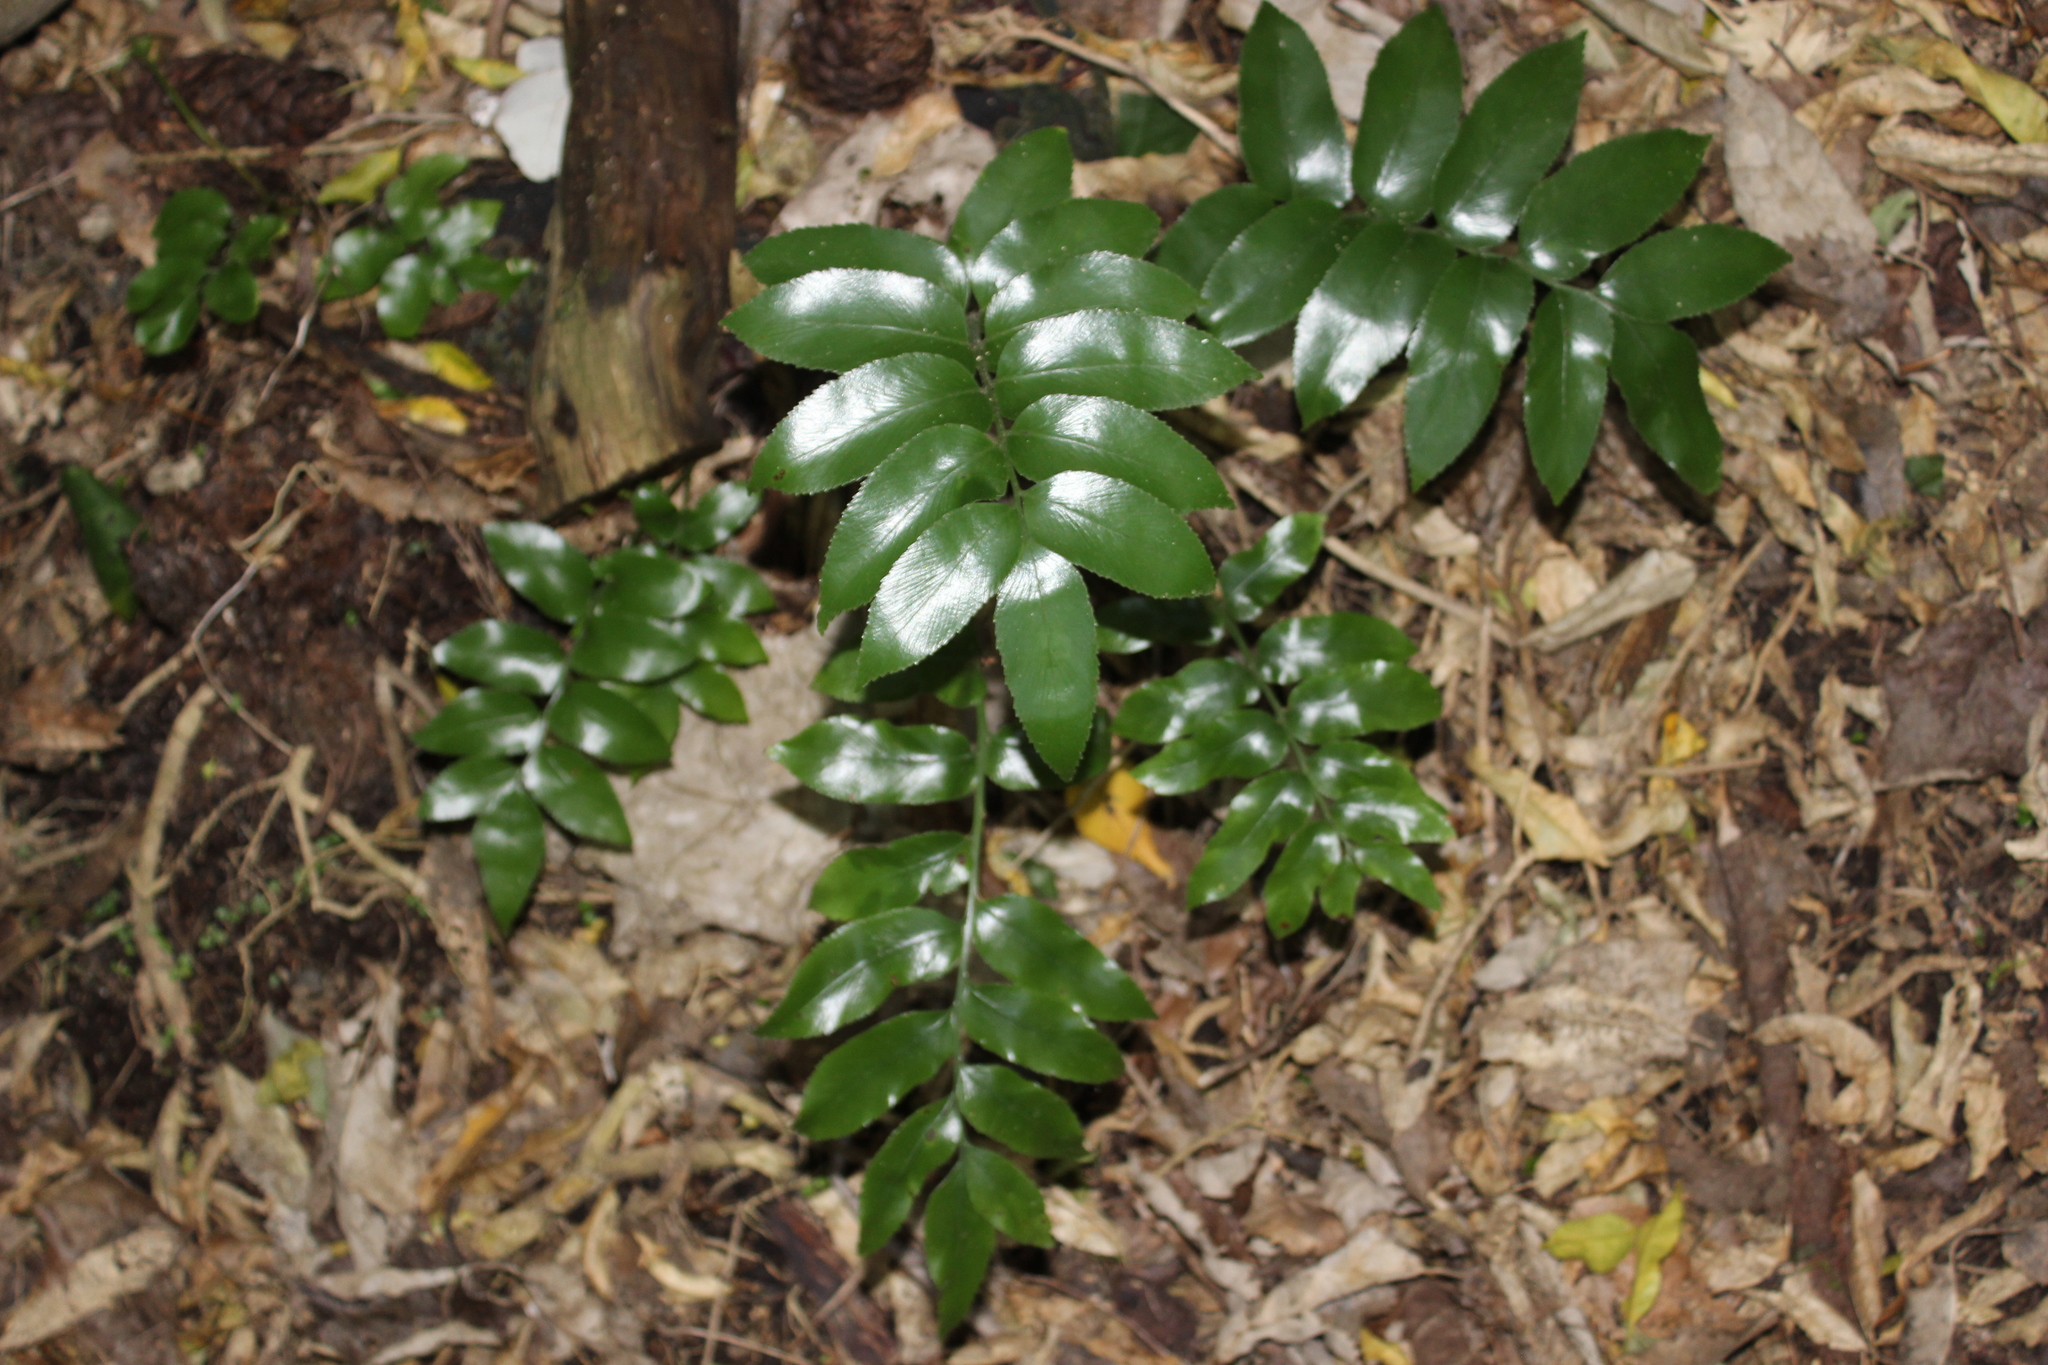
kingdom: Plantae
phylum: Tracheophyta
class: Polypodiopsida
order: Polypodiales
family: Aspleniaceae
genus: Asplenium
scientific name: Asplenium oblongifolium
